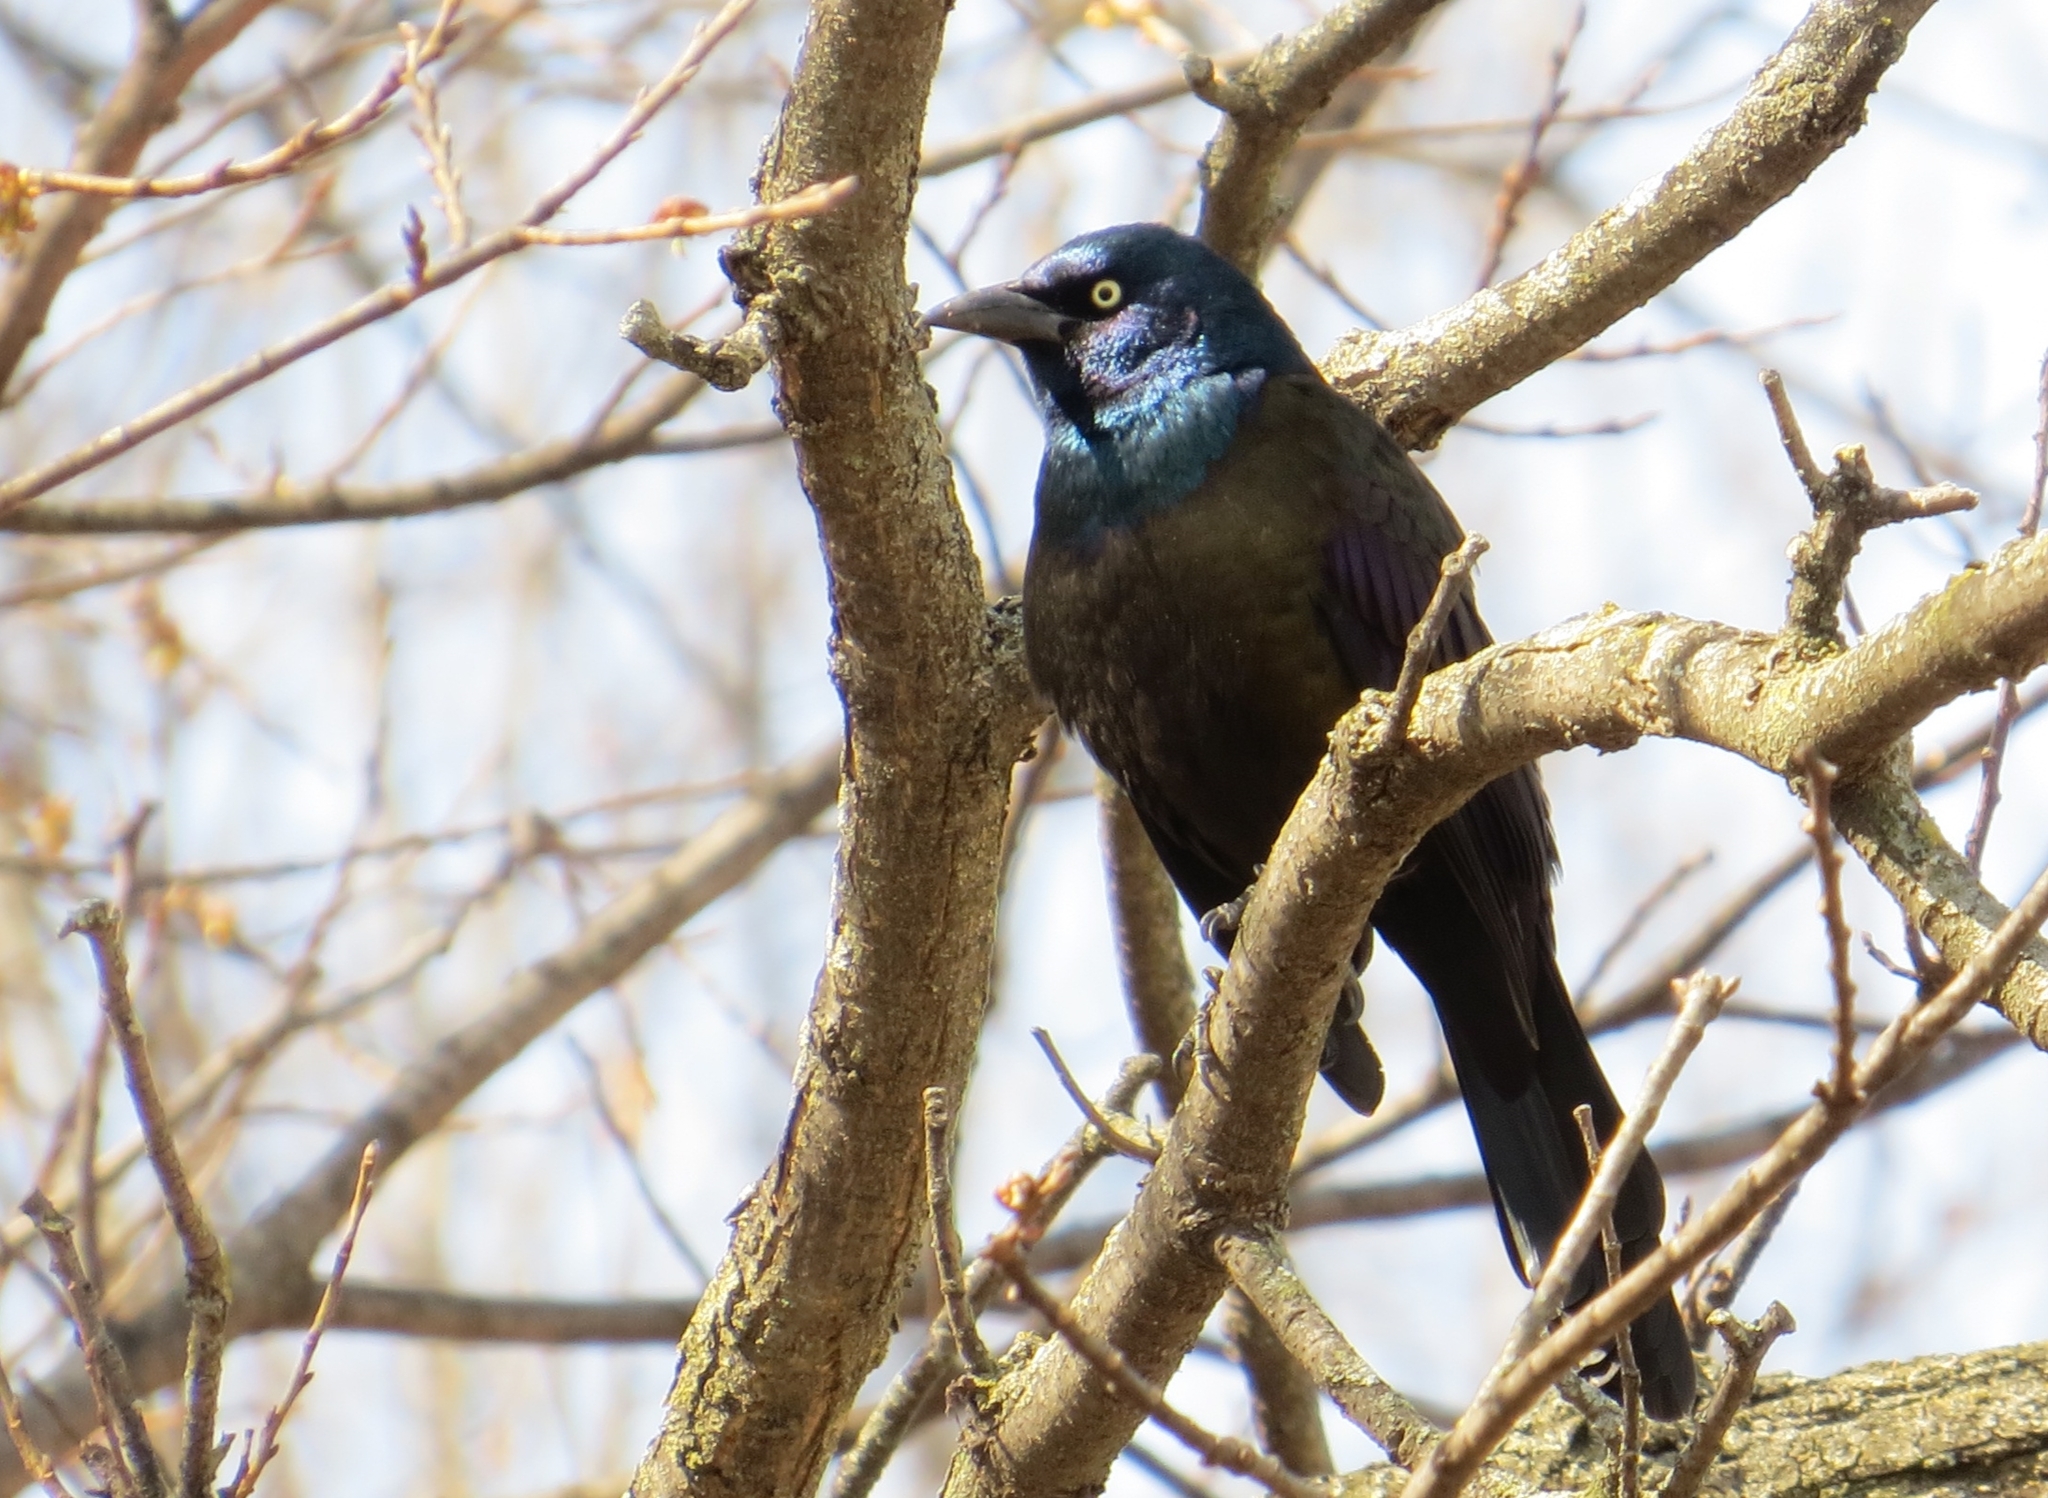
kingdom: Animalia
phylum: Chordata
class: Aves
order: Passeriformes
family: Icteridae
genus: Quiscalus
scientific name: Quiscalus quiscula
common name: Common grackle
